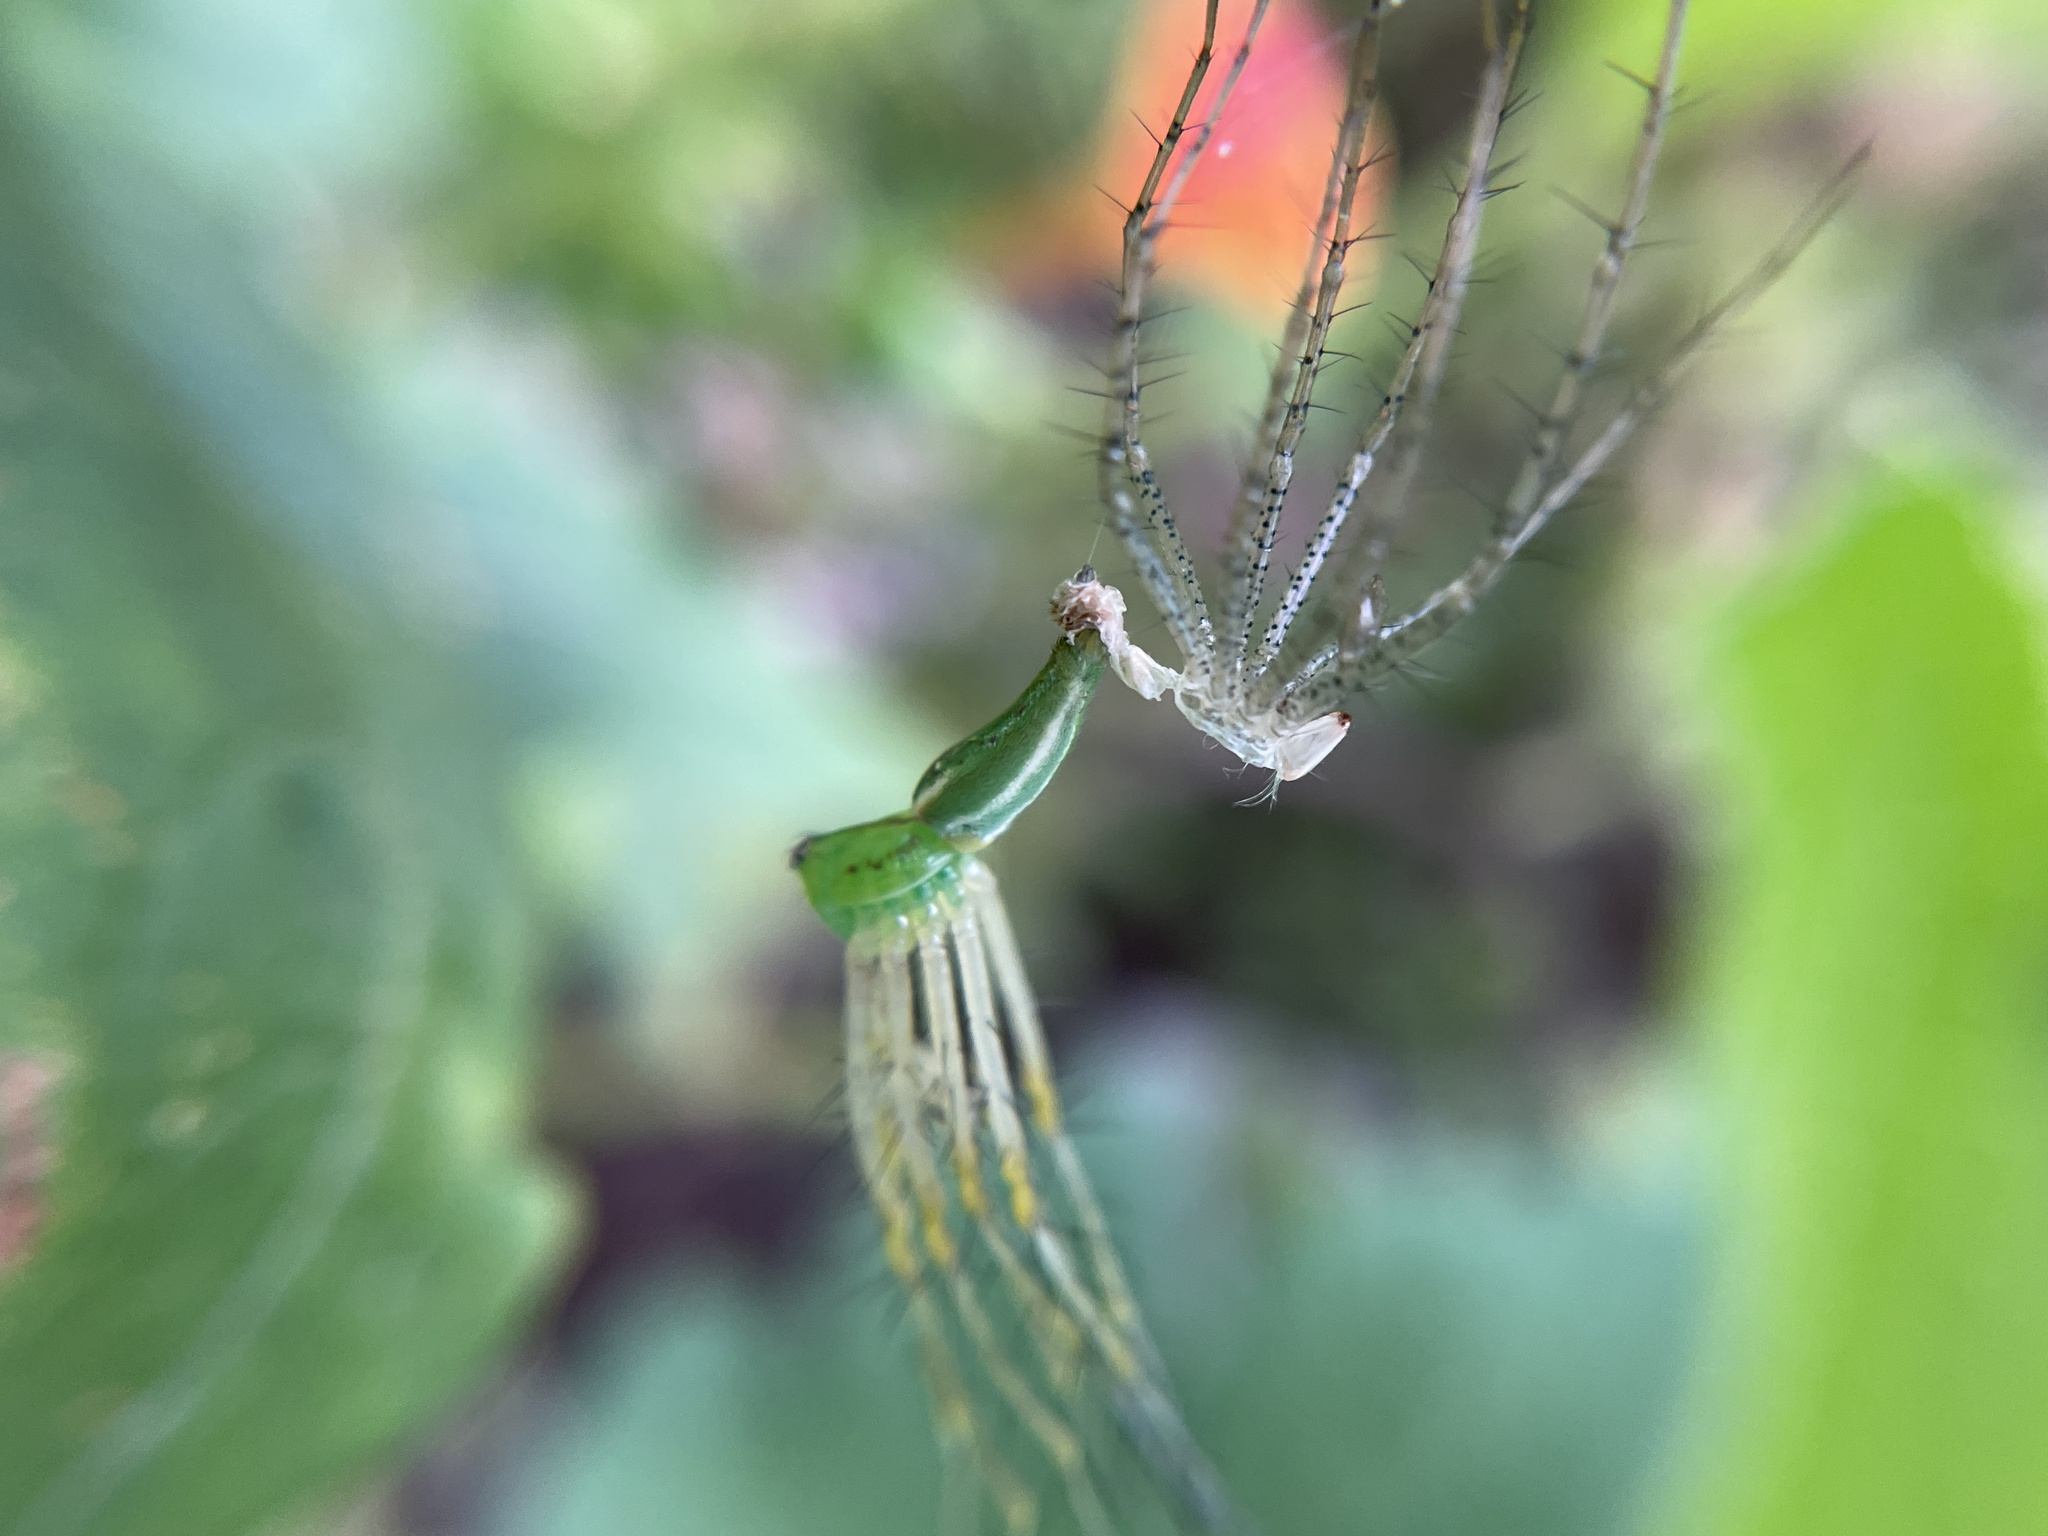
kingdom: Animalia
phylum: Arthropoda
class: Arachnida
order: Araneae
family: Oxyopidae
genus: Peucetia
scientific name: Peucetia viridans
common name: Lynx spiders
